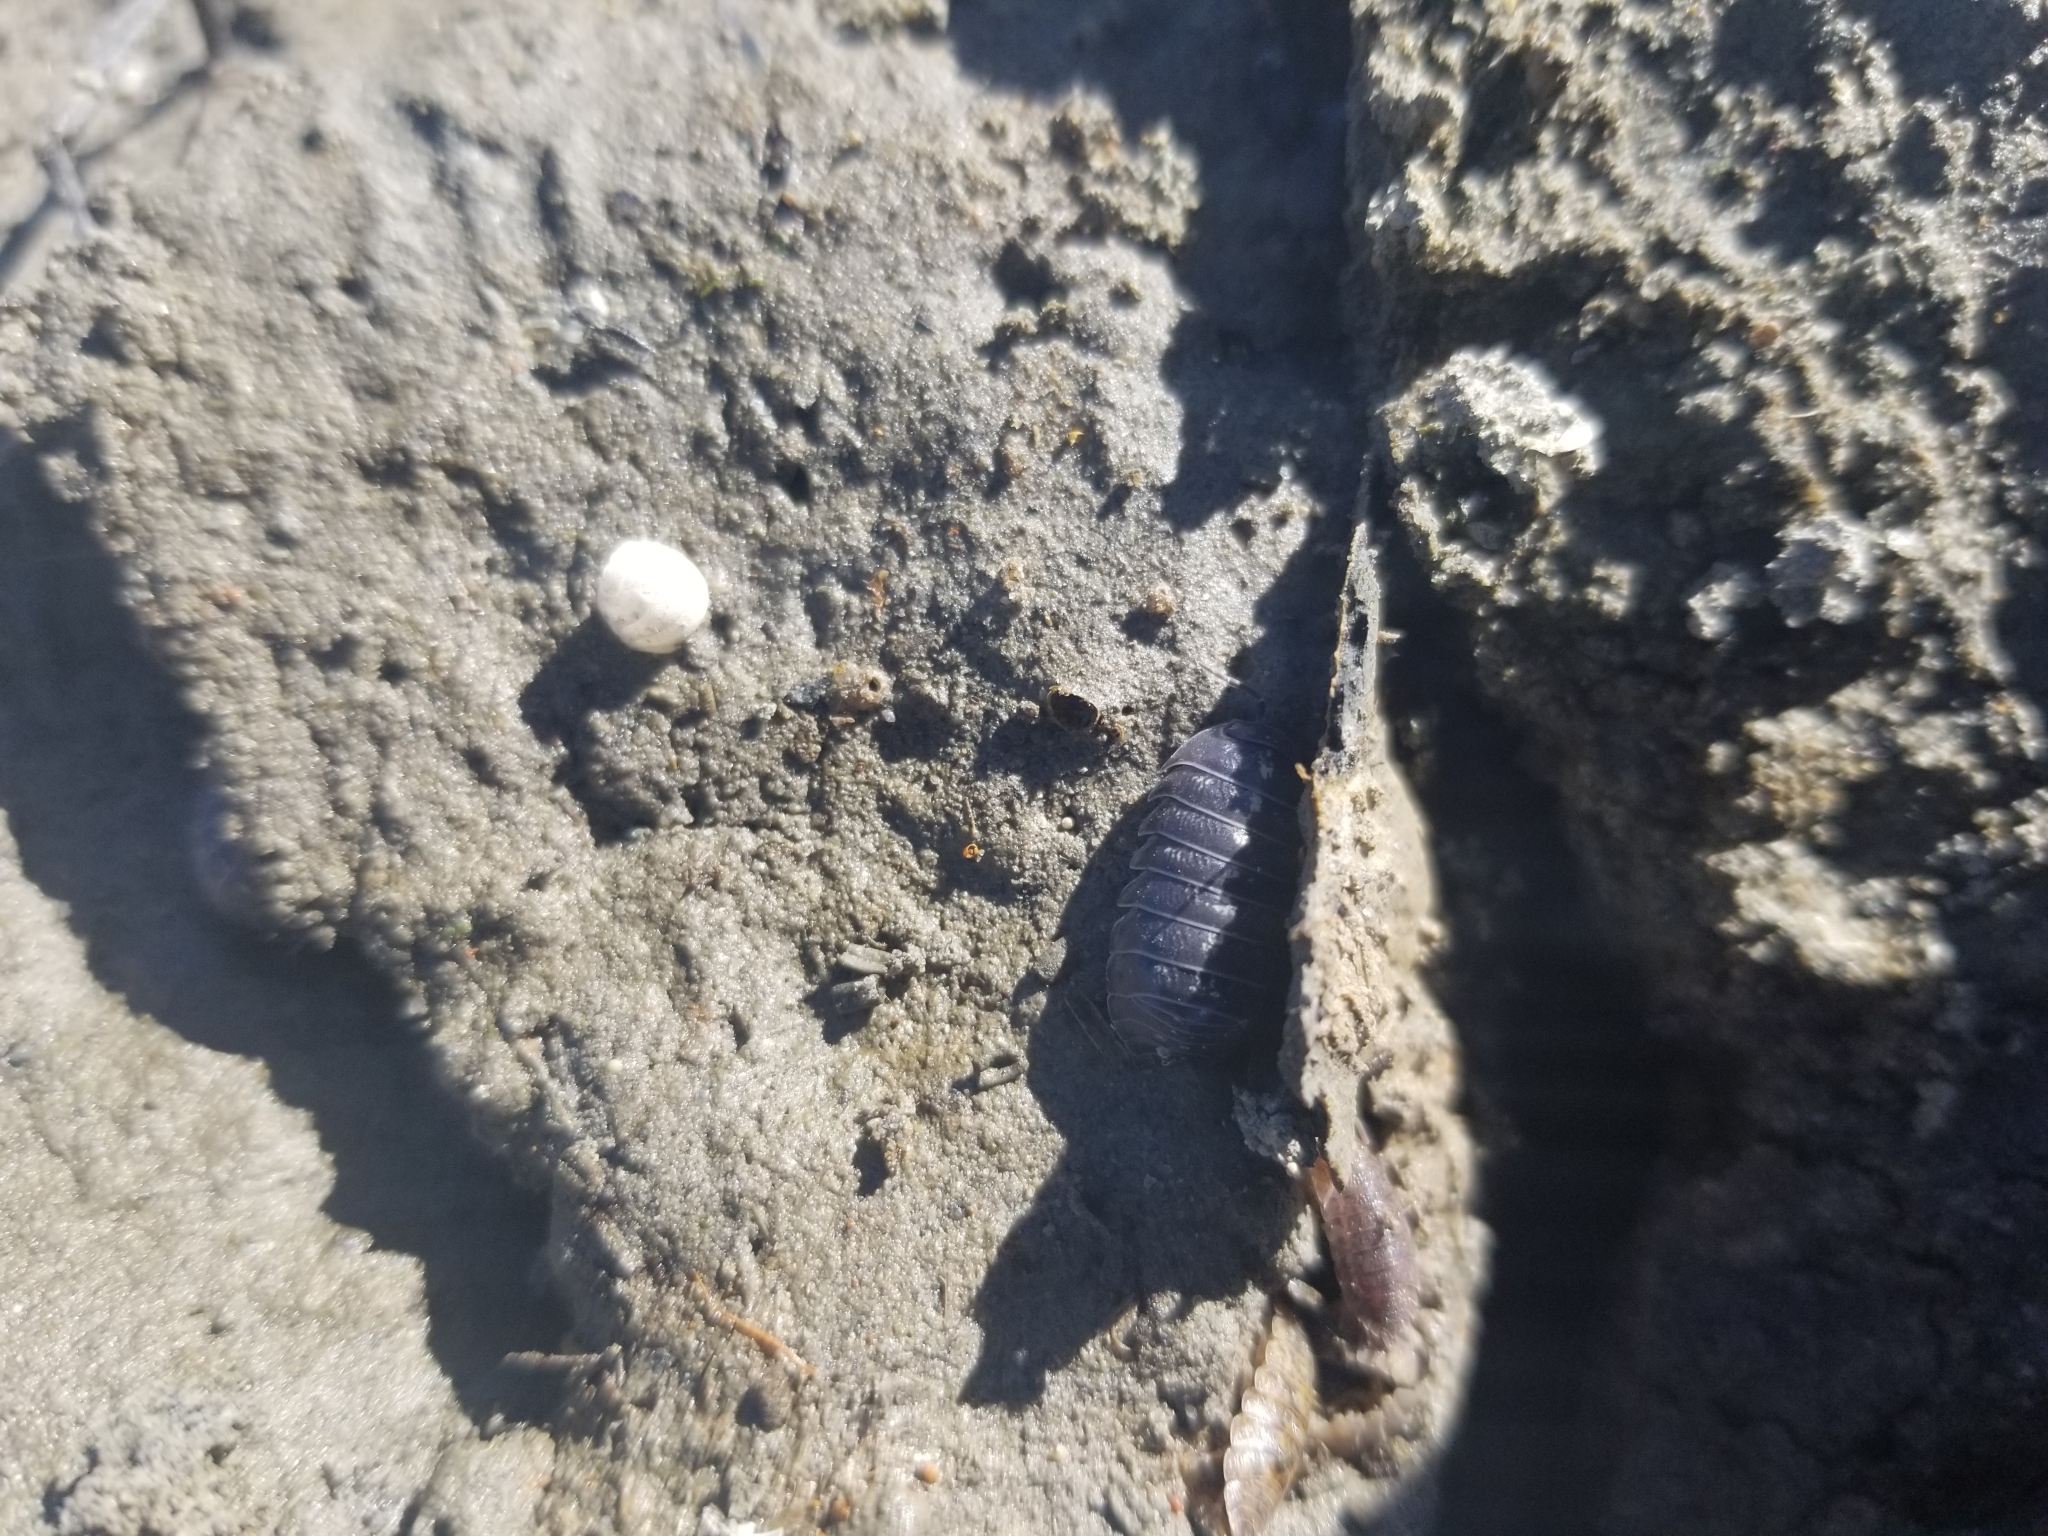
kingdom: Animalia
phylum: Arthropoda
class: Malacostraca
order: Isopoda
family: Armadillidiidae
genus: Armadillidium
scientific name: Armadillidium vulgare
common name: Common pill woodlouse
